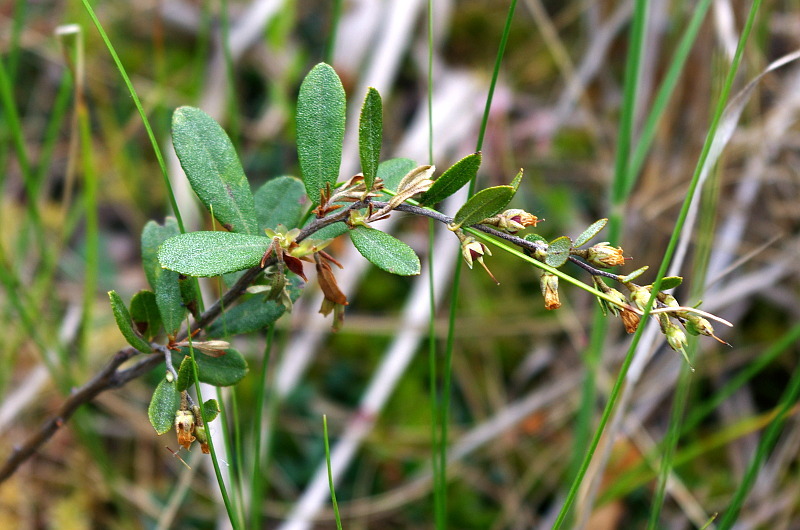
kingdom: Plantae
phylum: Tracheophyta
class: Magnoliopsida
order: Ericales
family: Ericaceae
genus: Chamaedaphne
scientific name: Chamaedaphne calyculata
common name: Leatherleaf
